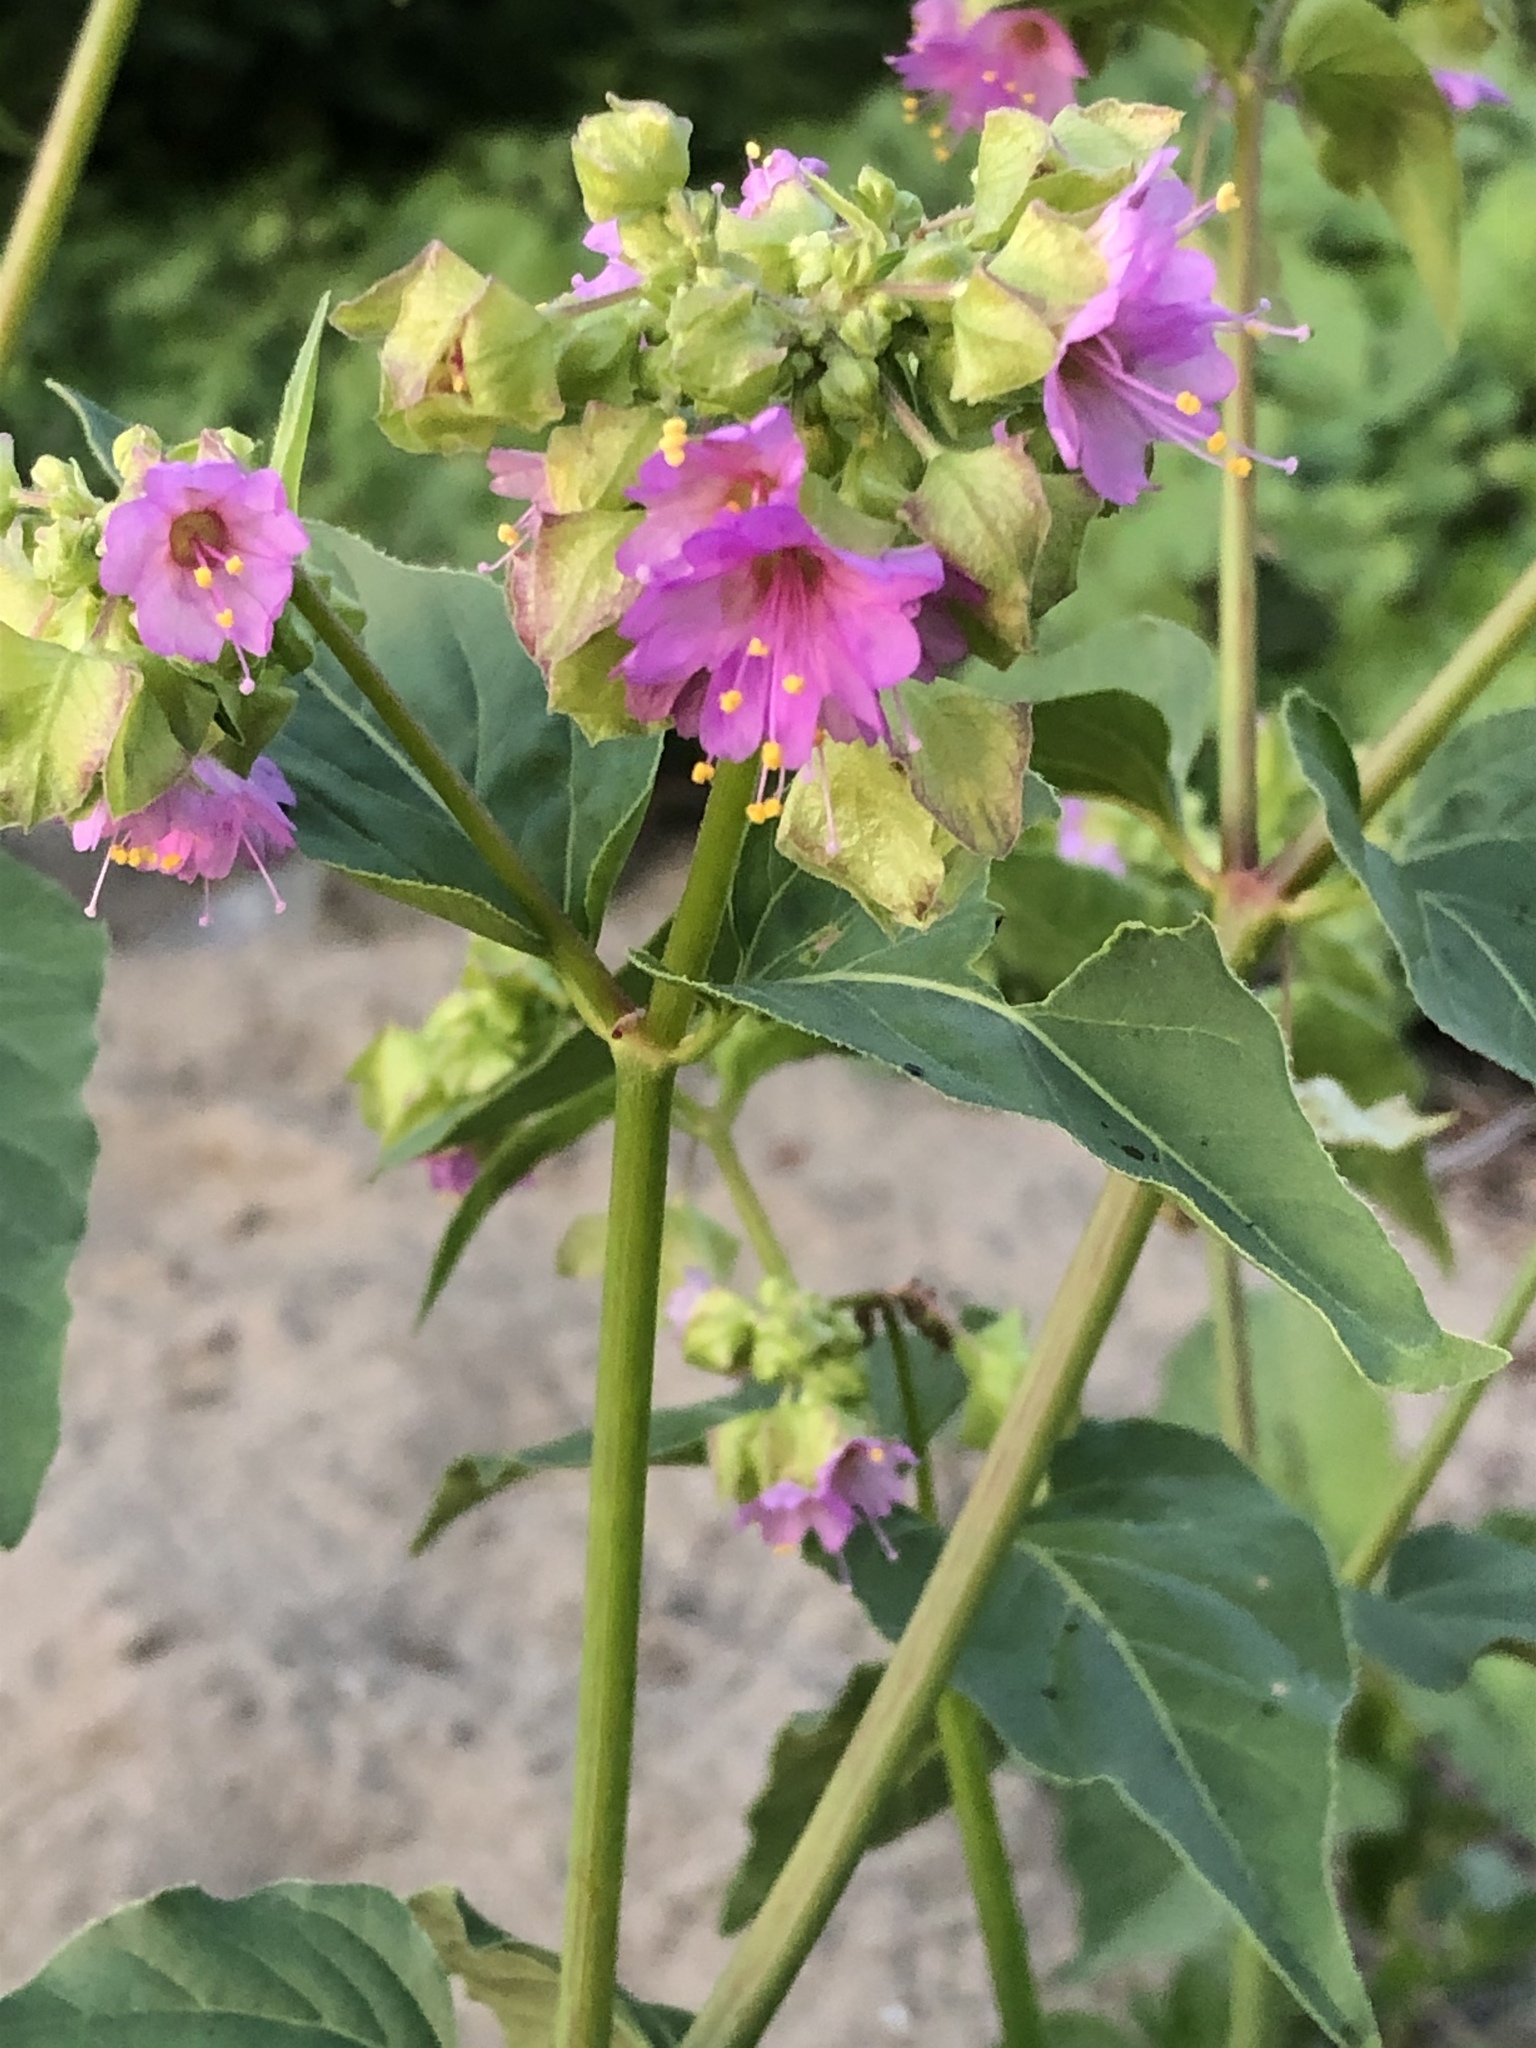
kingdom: Plantae
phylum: Tracheophyta
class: Magnoliopsida
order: Caryophyllales
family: Nyctaginaceae
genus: Mirabilis
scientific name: Mirabilis nyctaginea
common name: Umbrella wort
